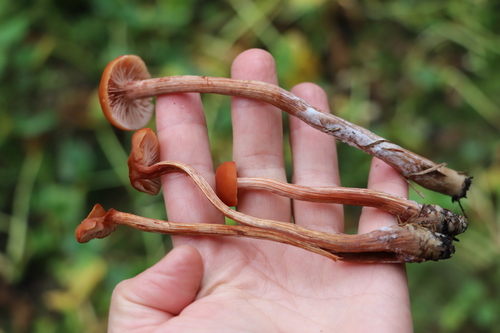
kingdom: Fungi
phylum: Basidiomycota
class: Agaricomycetes
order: Agaricales
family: Hydnangiaceae
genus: Laccaria
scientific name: Laccaria laccata
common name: Deceiver
